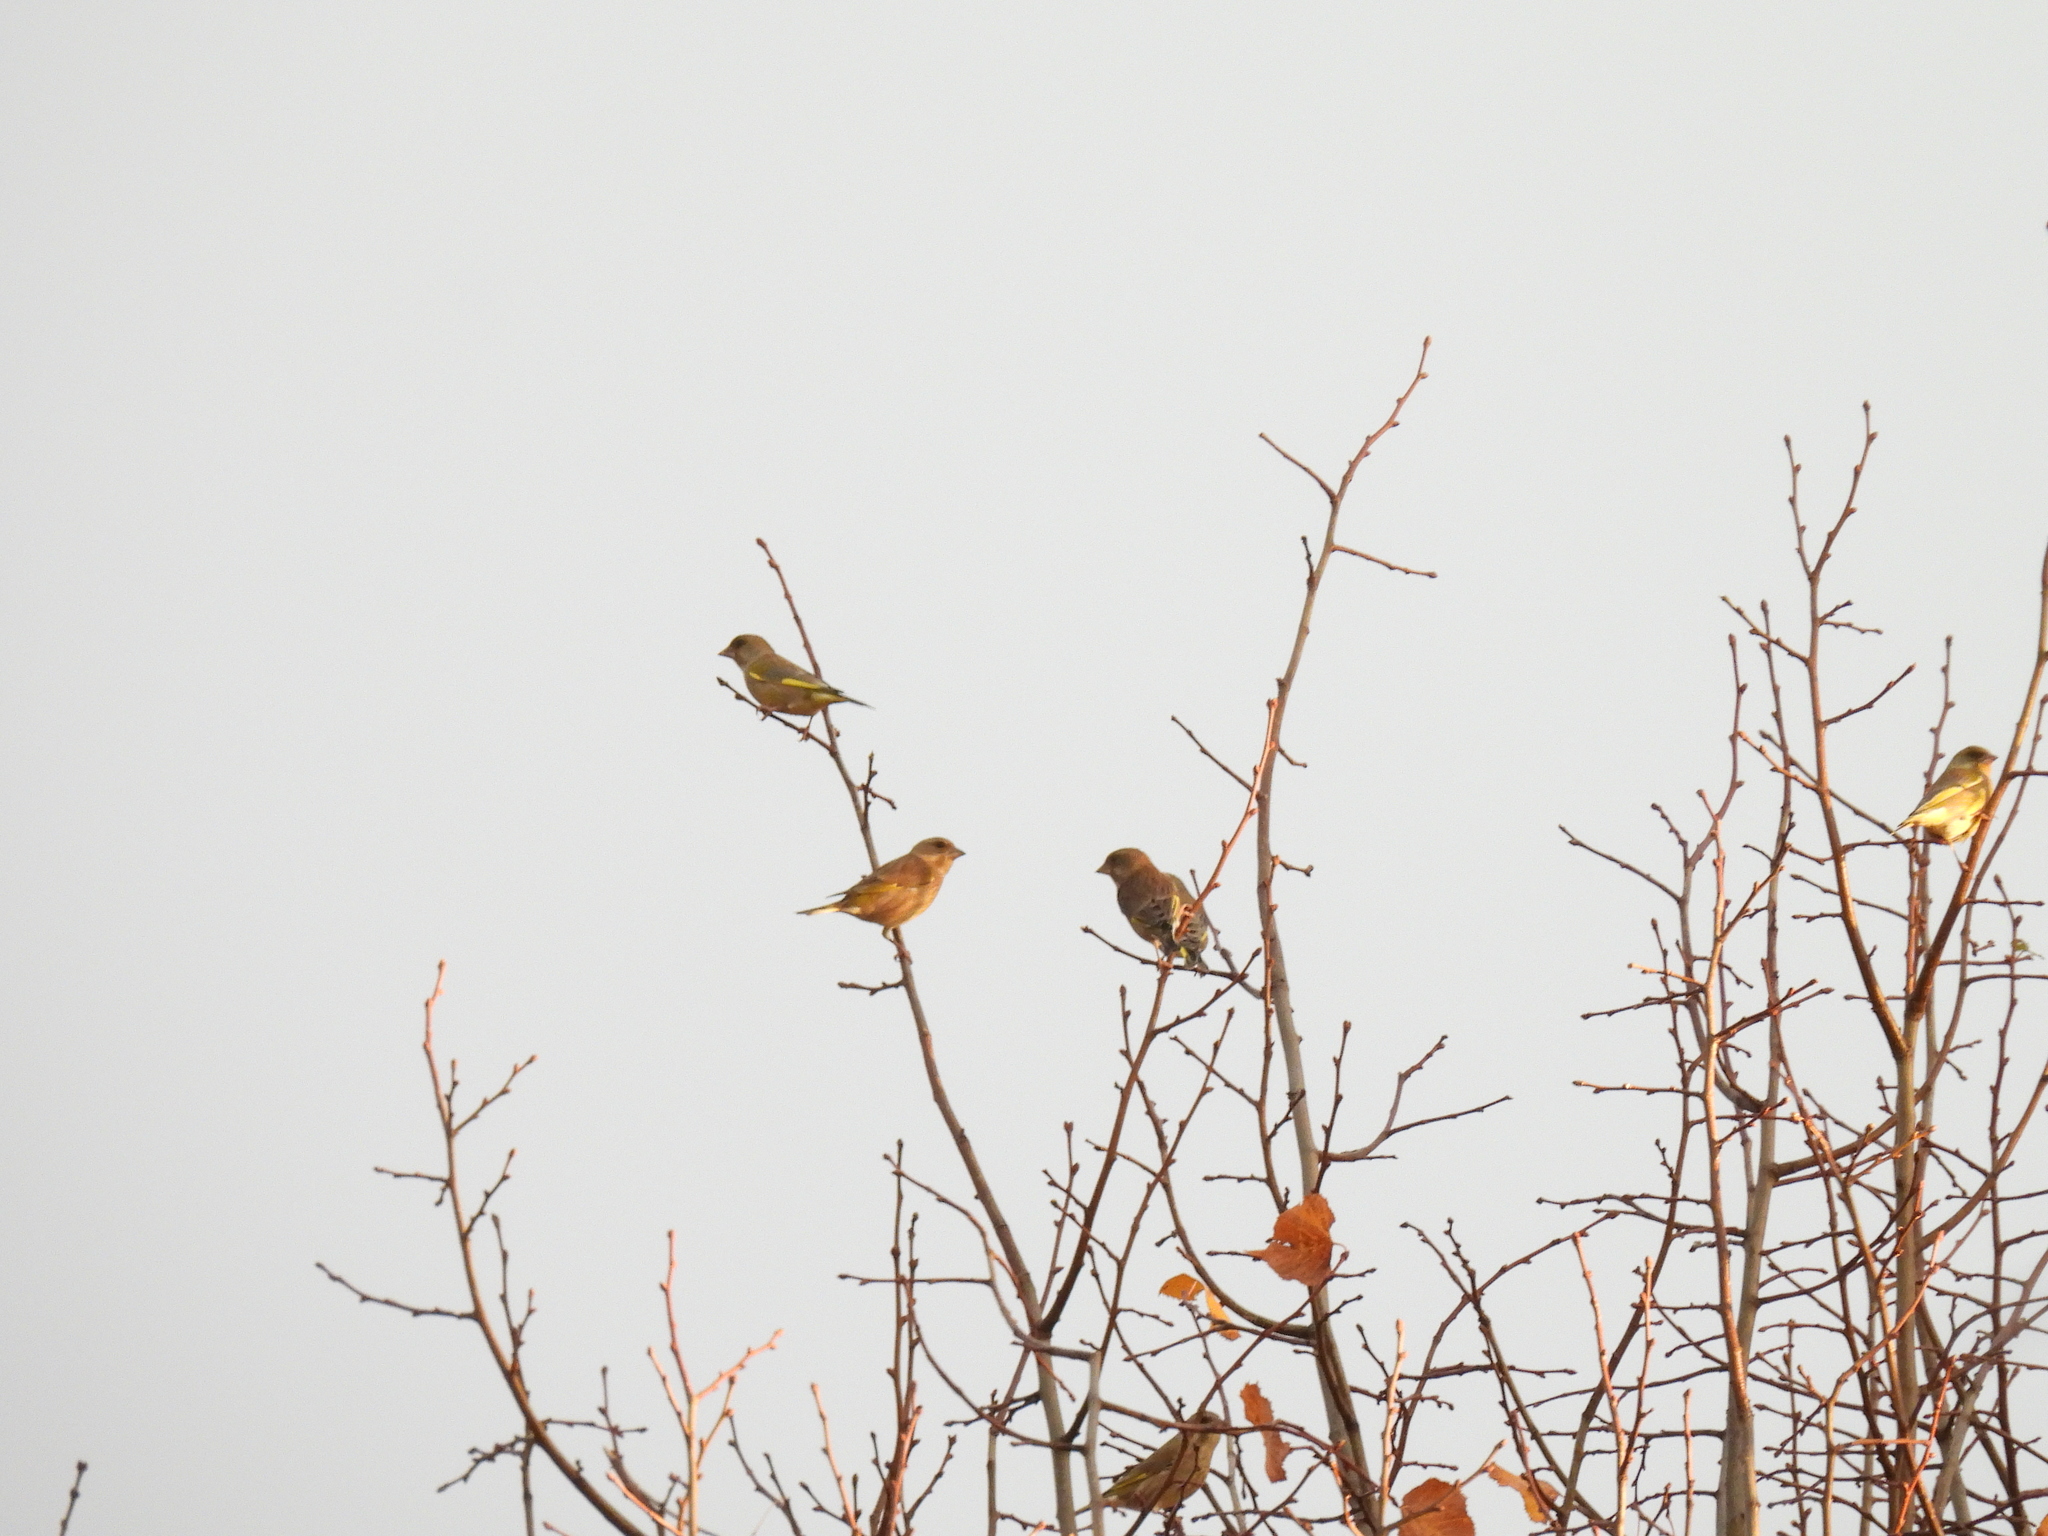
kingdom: Plantae
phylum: Tracheophyta
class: Liliopsida
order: Poales
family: Poaceae
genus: Chloris
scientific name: Chloris chloris
